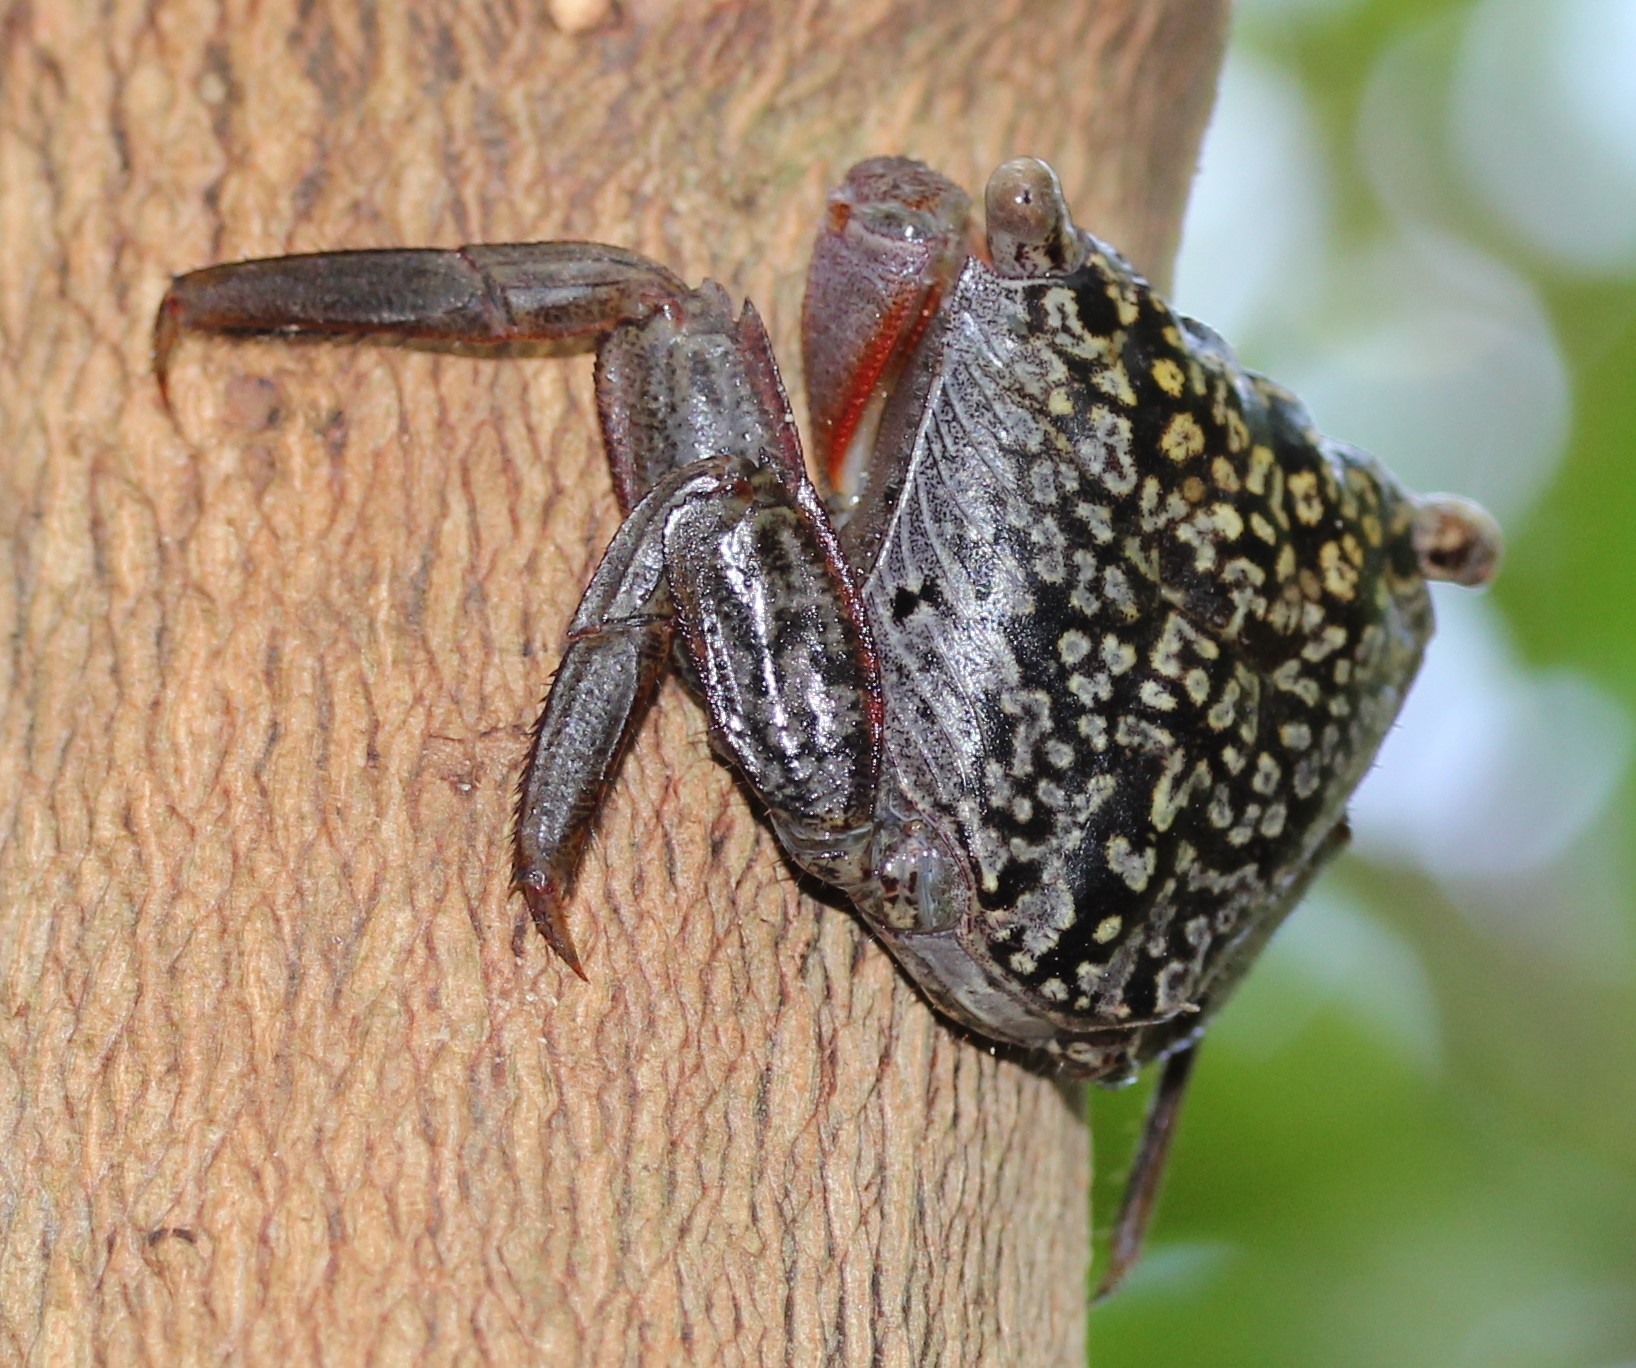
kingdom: Animalia
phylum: Arthropoda
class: Malacostraca
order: Decapoda
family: Sesarmidae
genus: Aratus
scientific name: Aratus pisonii
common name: Mangrove crab
